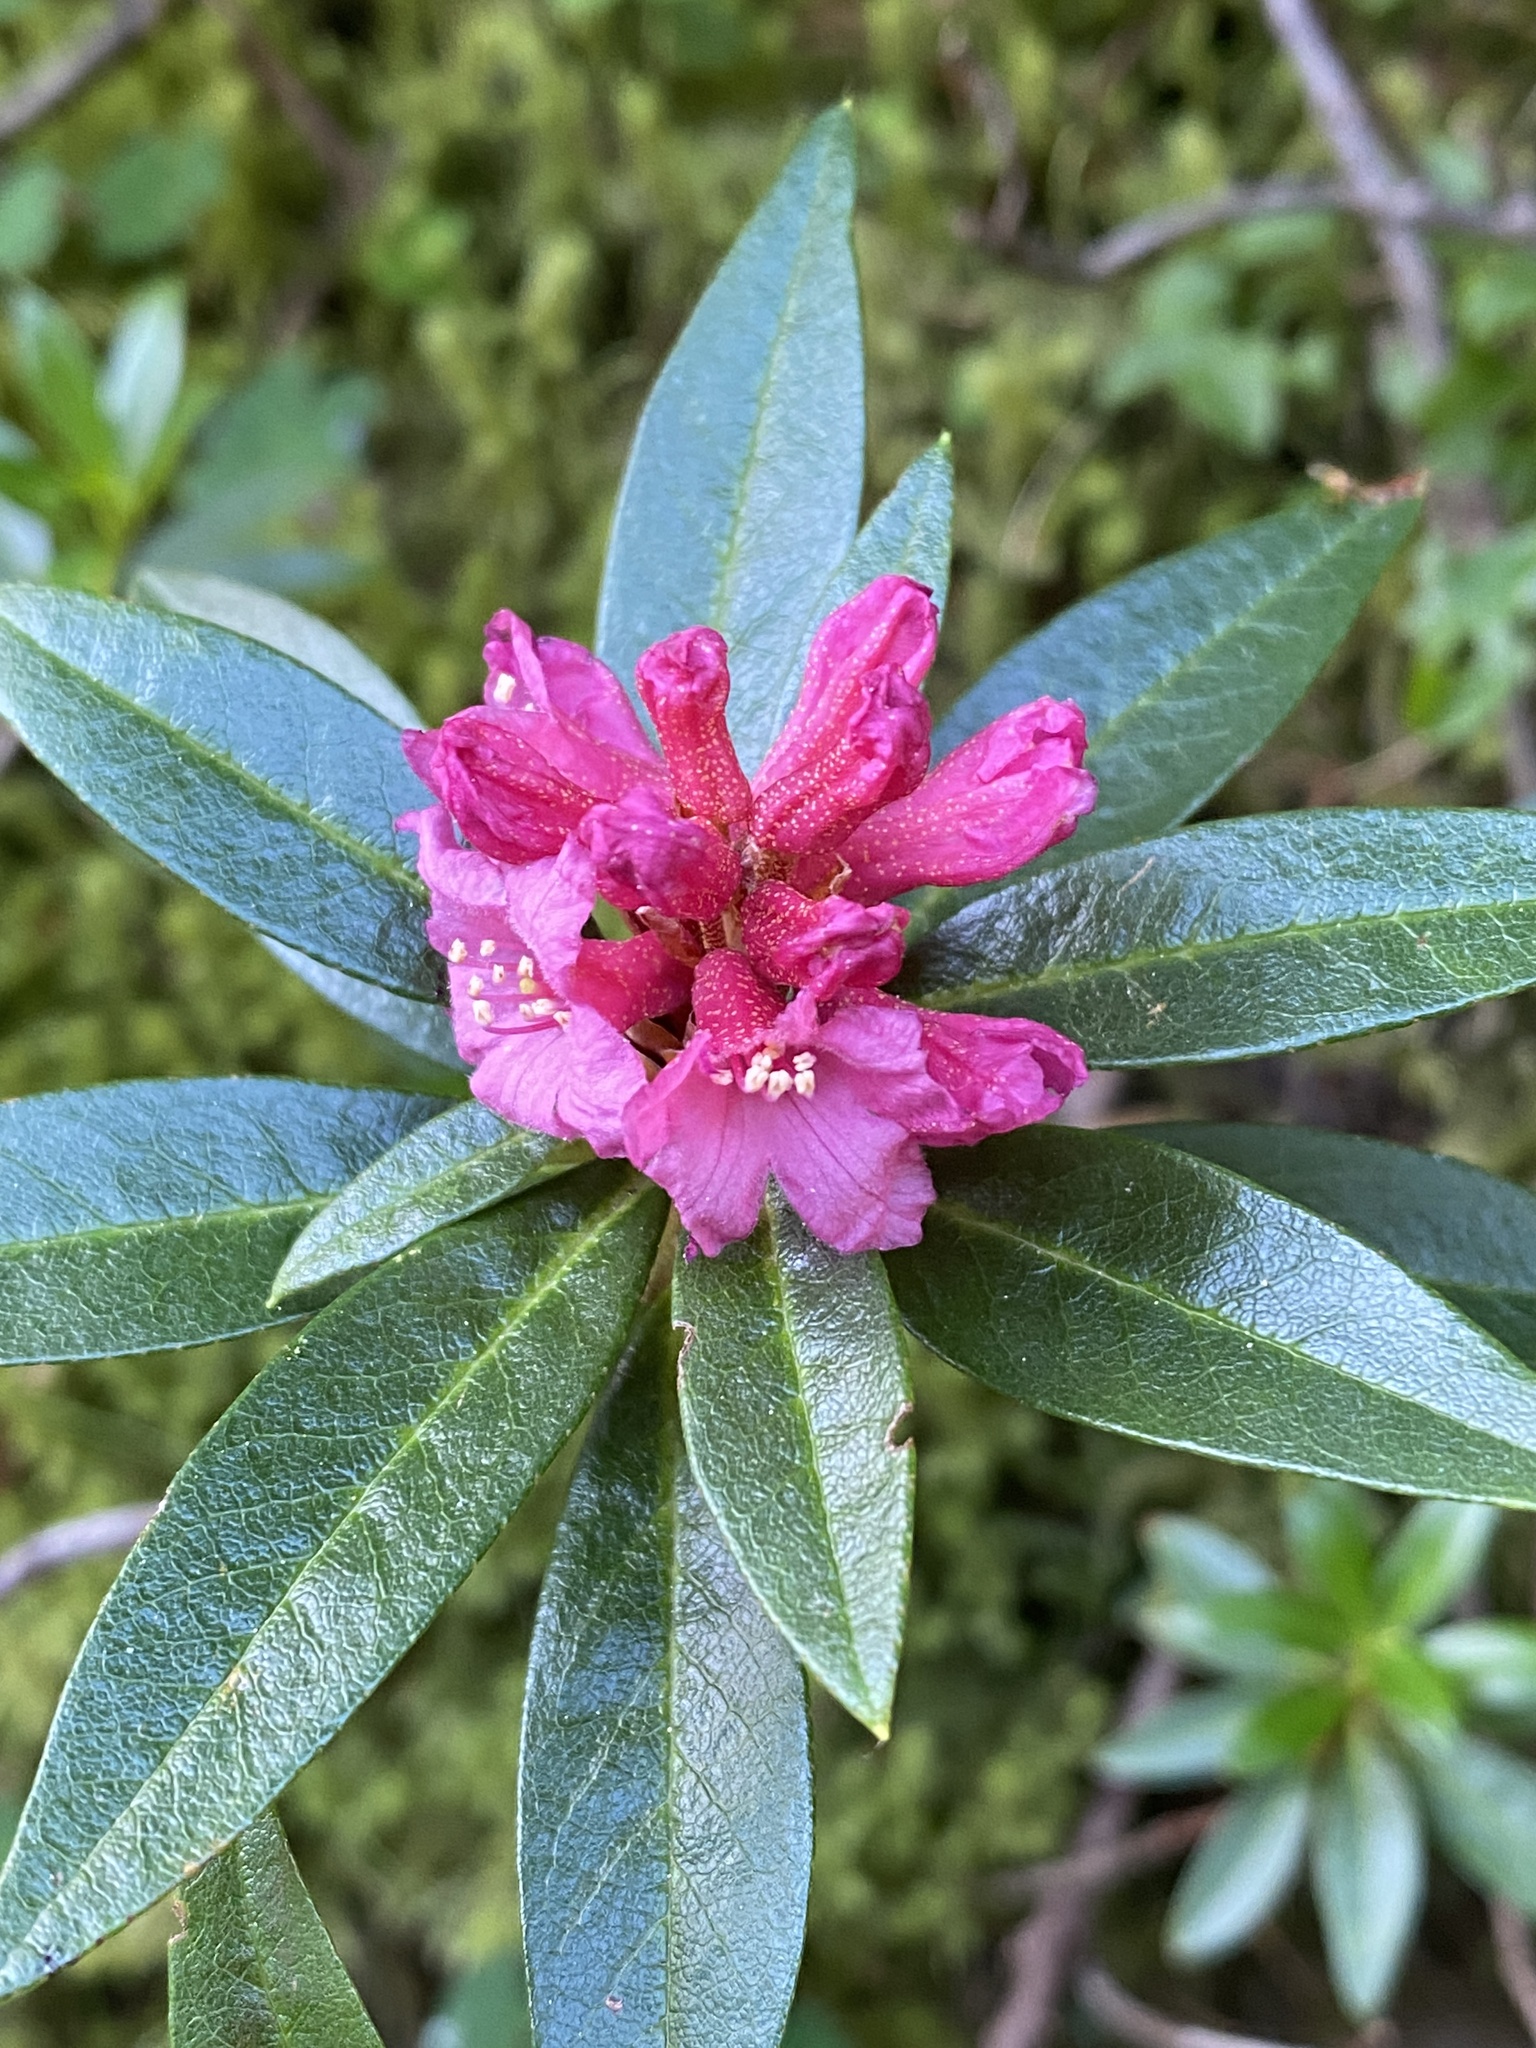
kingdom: Plantae
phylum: Tracheophyta
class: Magnoliopsida
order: Ericales
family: Ericaceae
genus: Rhododendron
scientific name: Rhododendron ferrugineum
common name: Alpenrose
